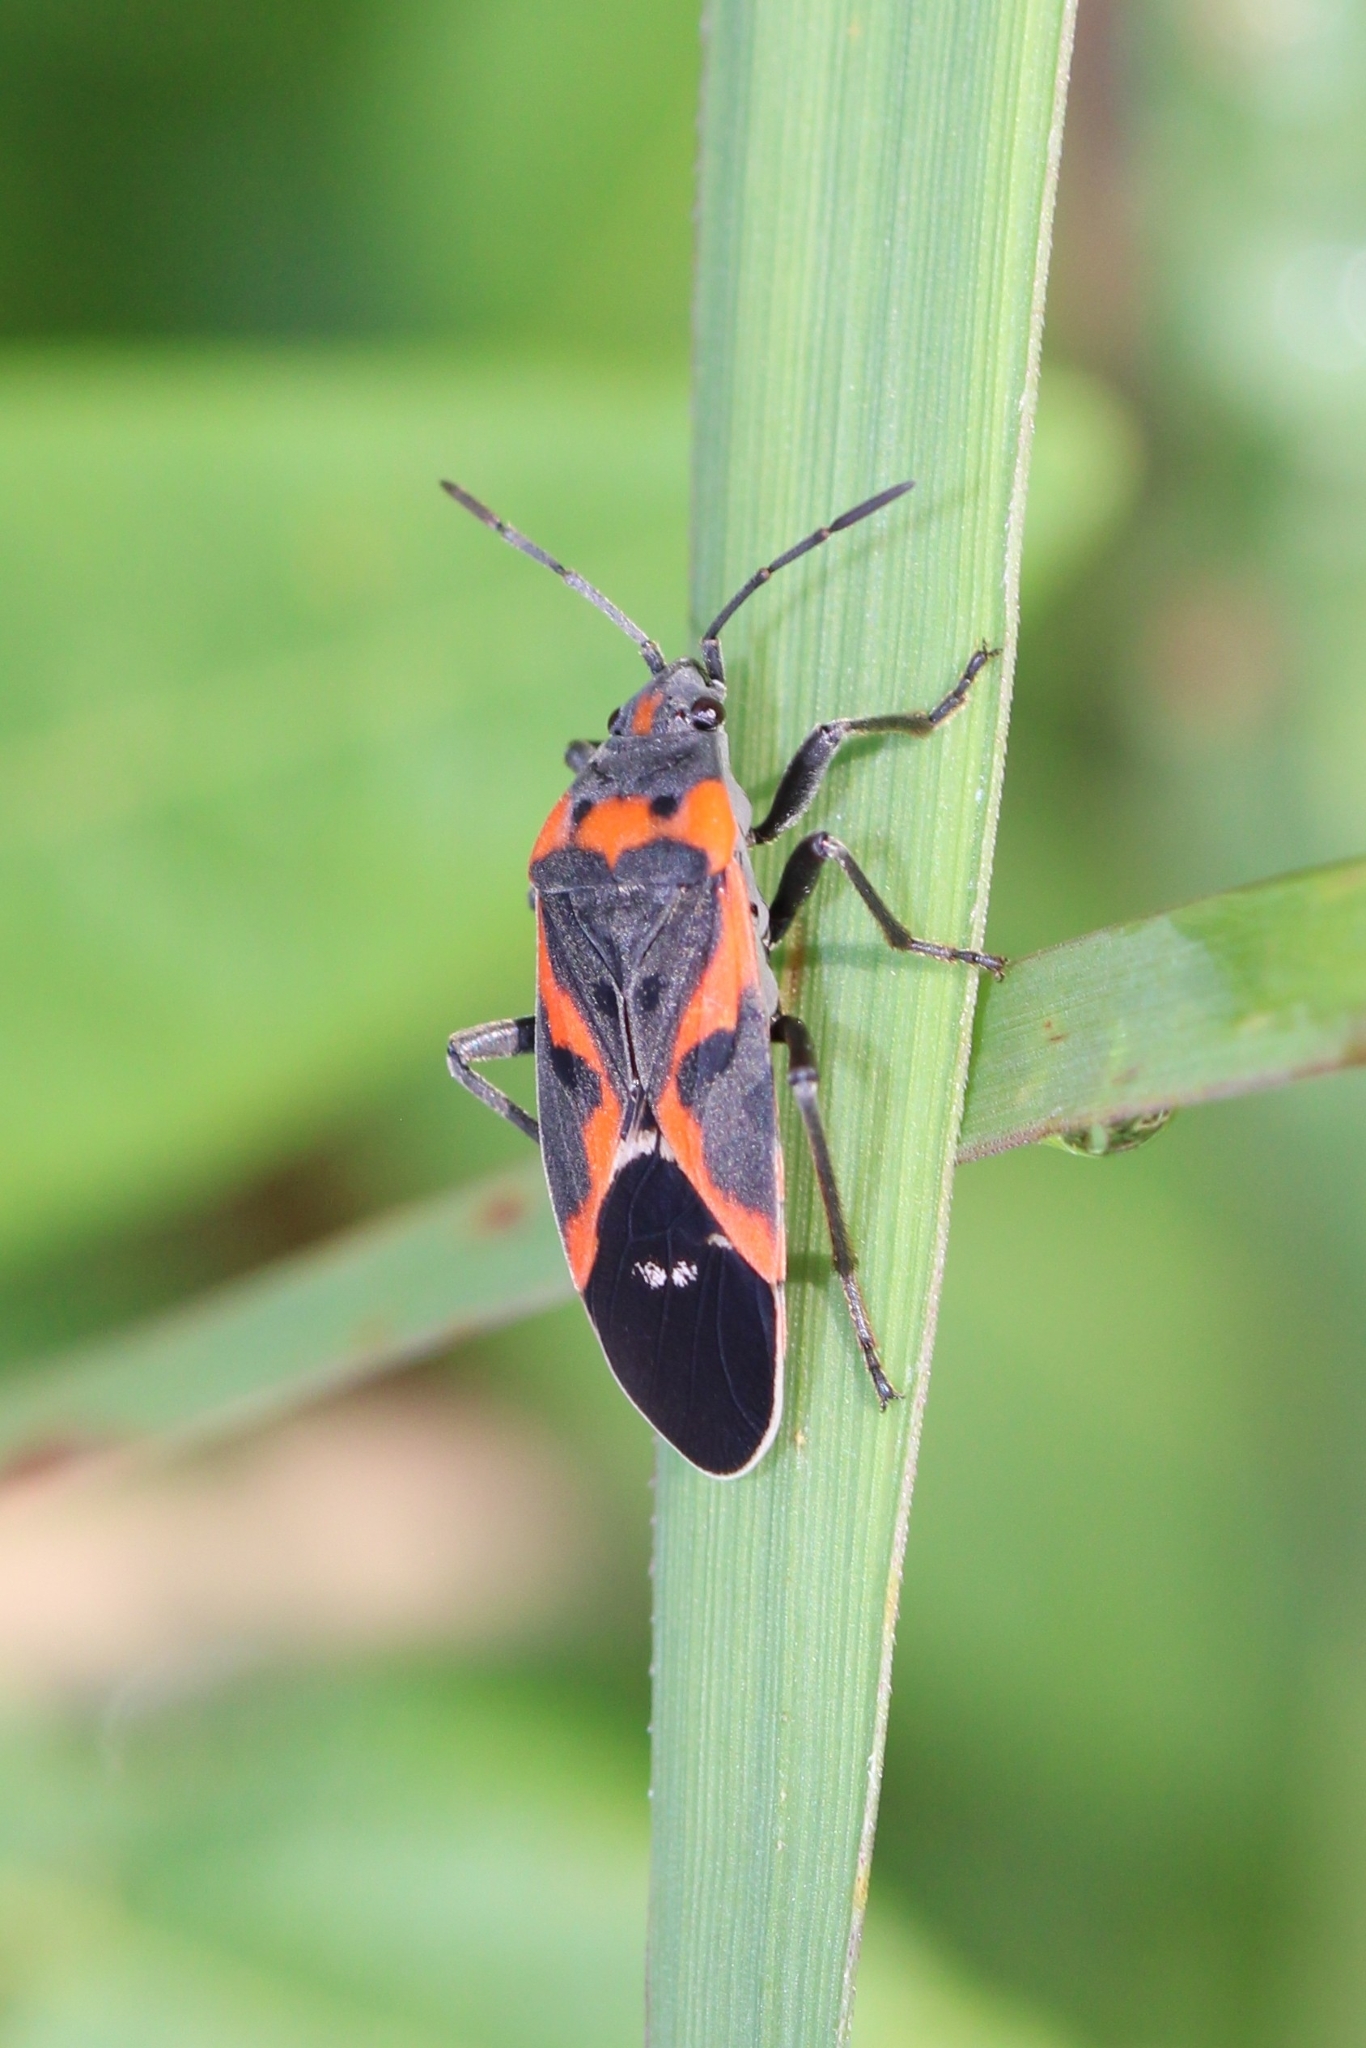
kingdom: Animalia
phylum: Arthropoda
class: Insecta
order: Hemiptera
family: Lygaeidae
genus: Lygaeus
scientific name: Lygaeus kalmii
